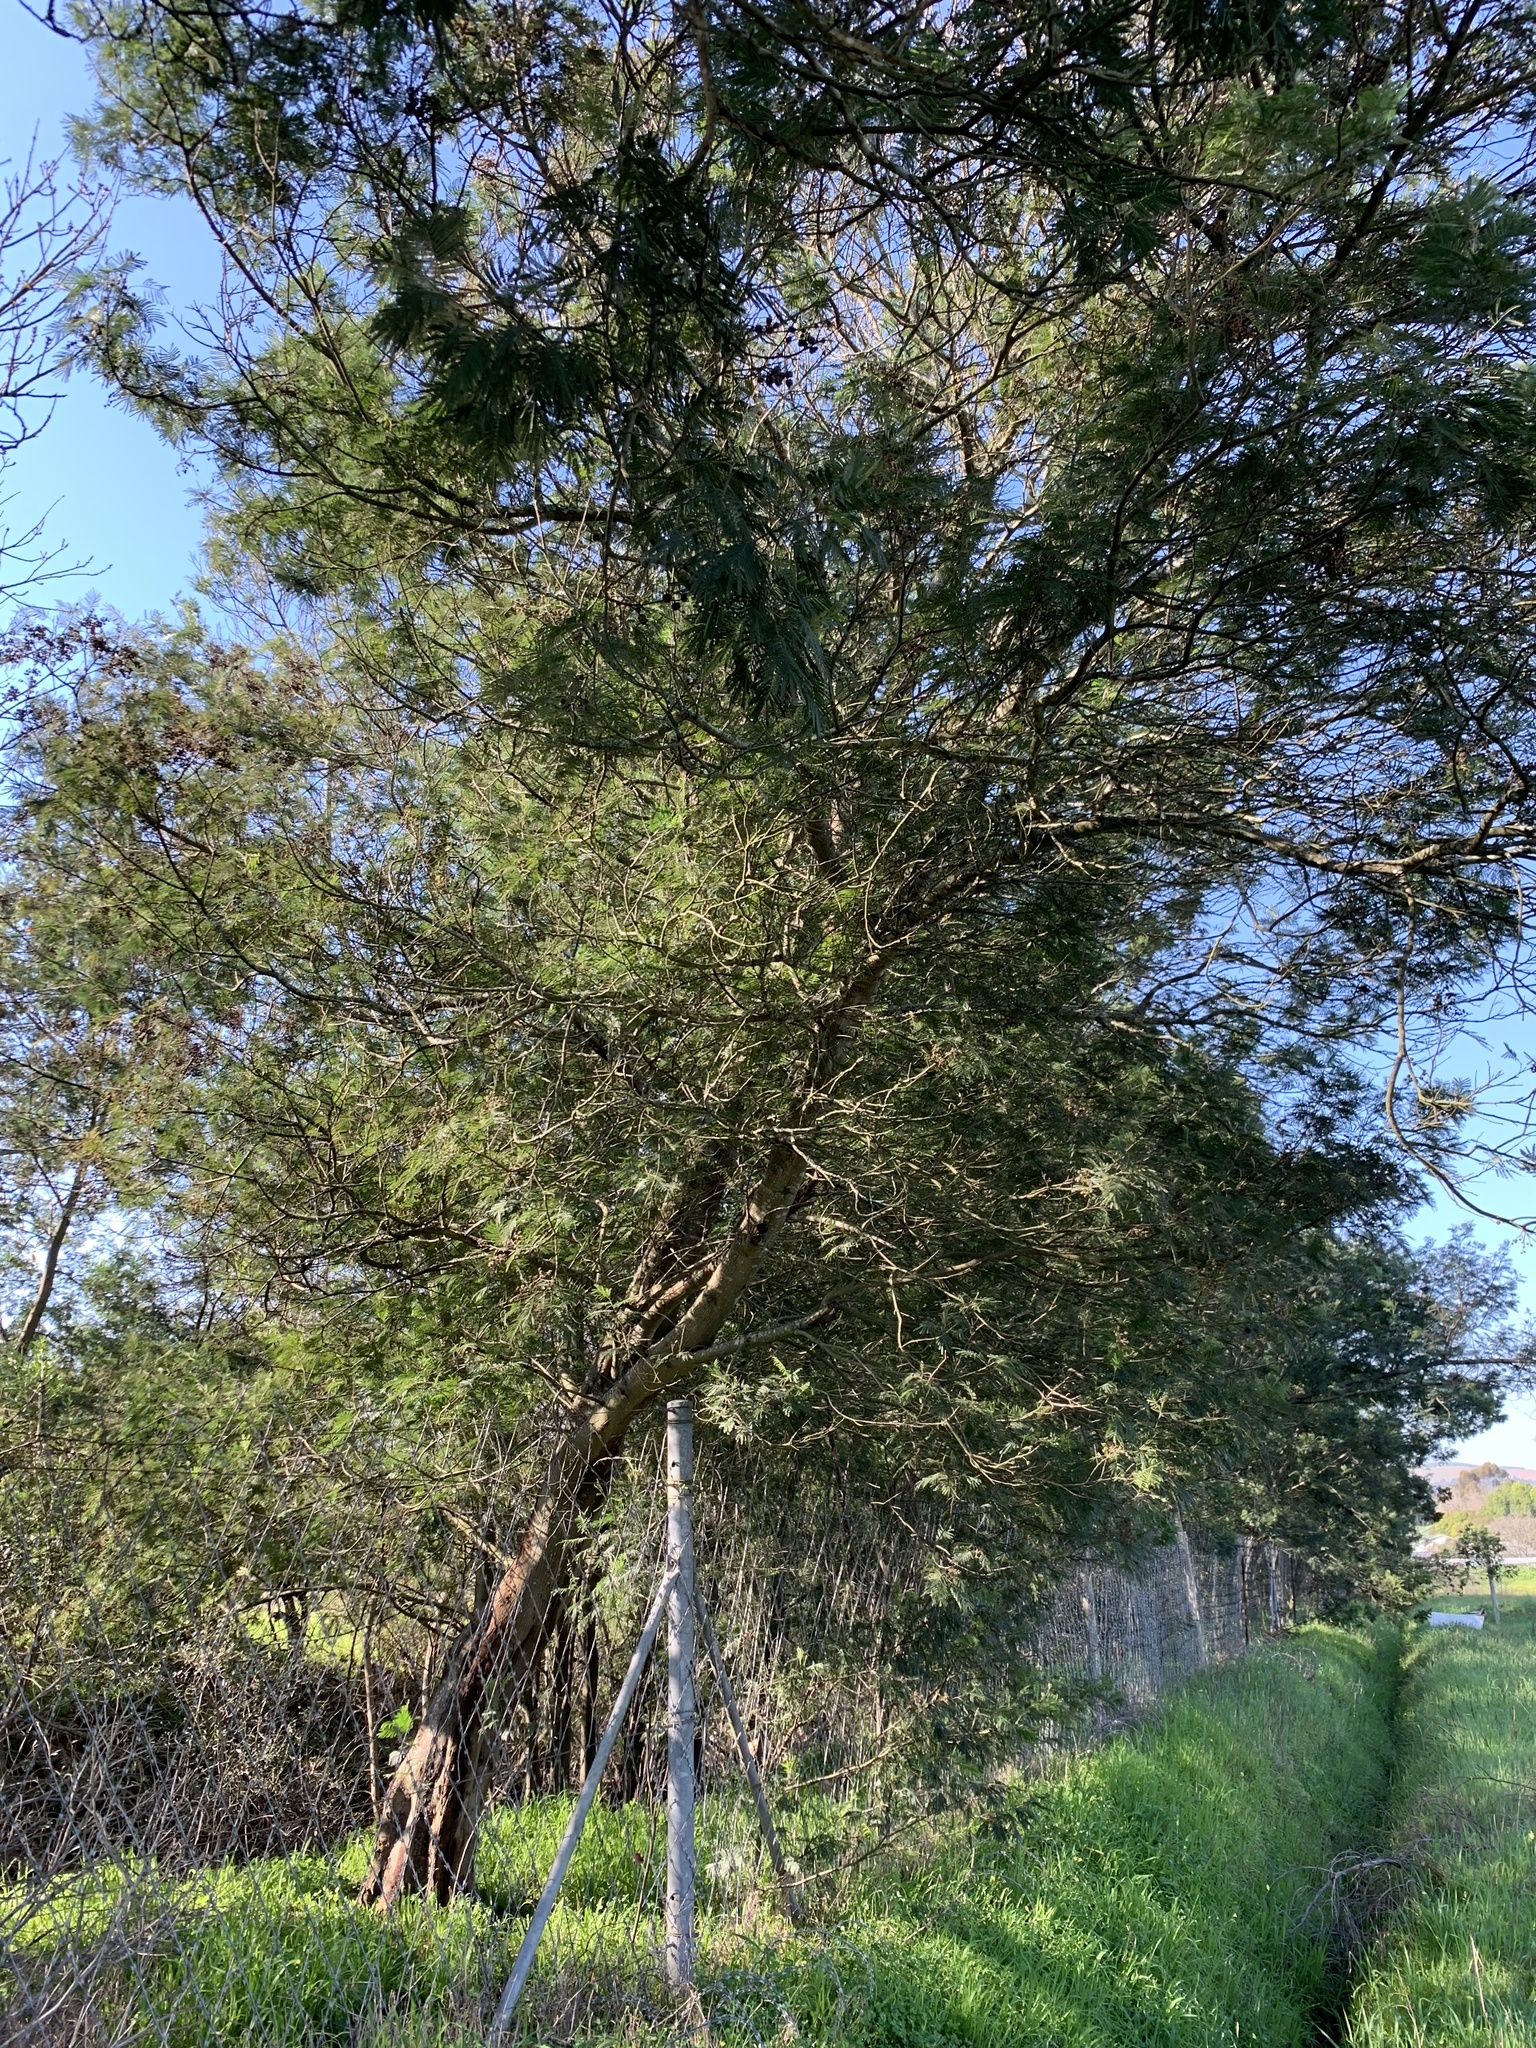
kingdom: Plantae
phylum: Tracheophyta
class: Magnoliopsida
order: Fabales
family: Fabaceae
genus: Acacia
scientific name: Acacia mearnsii
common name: Black wattle
